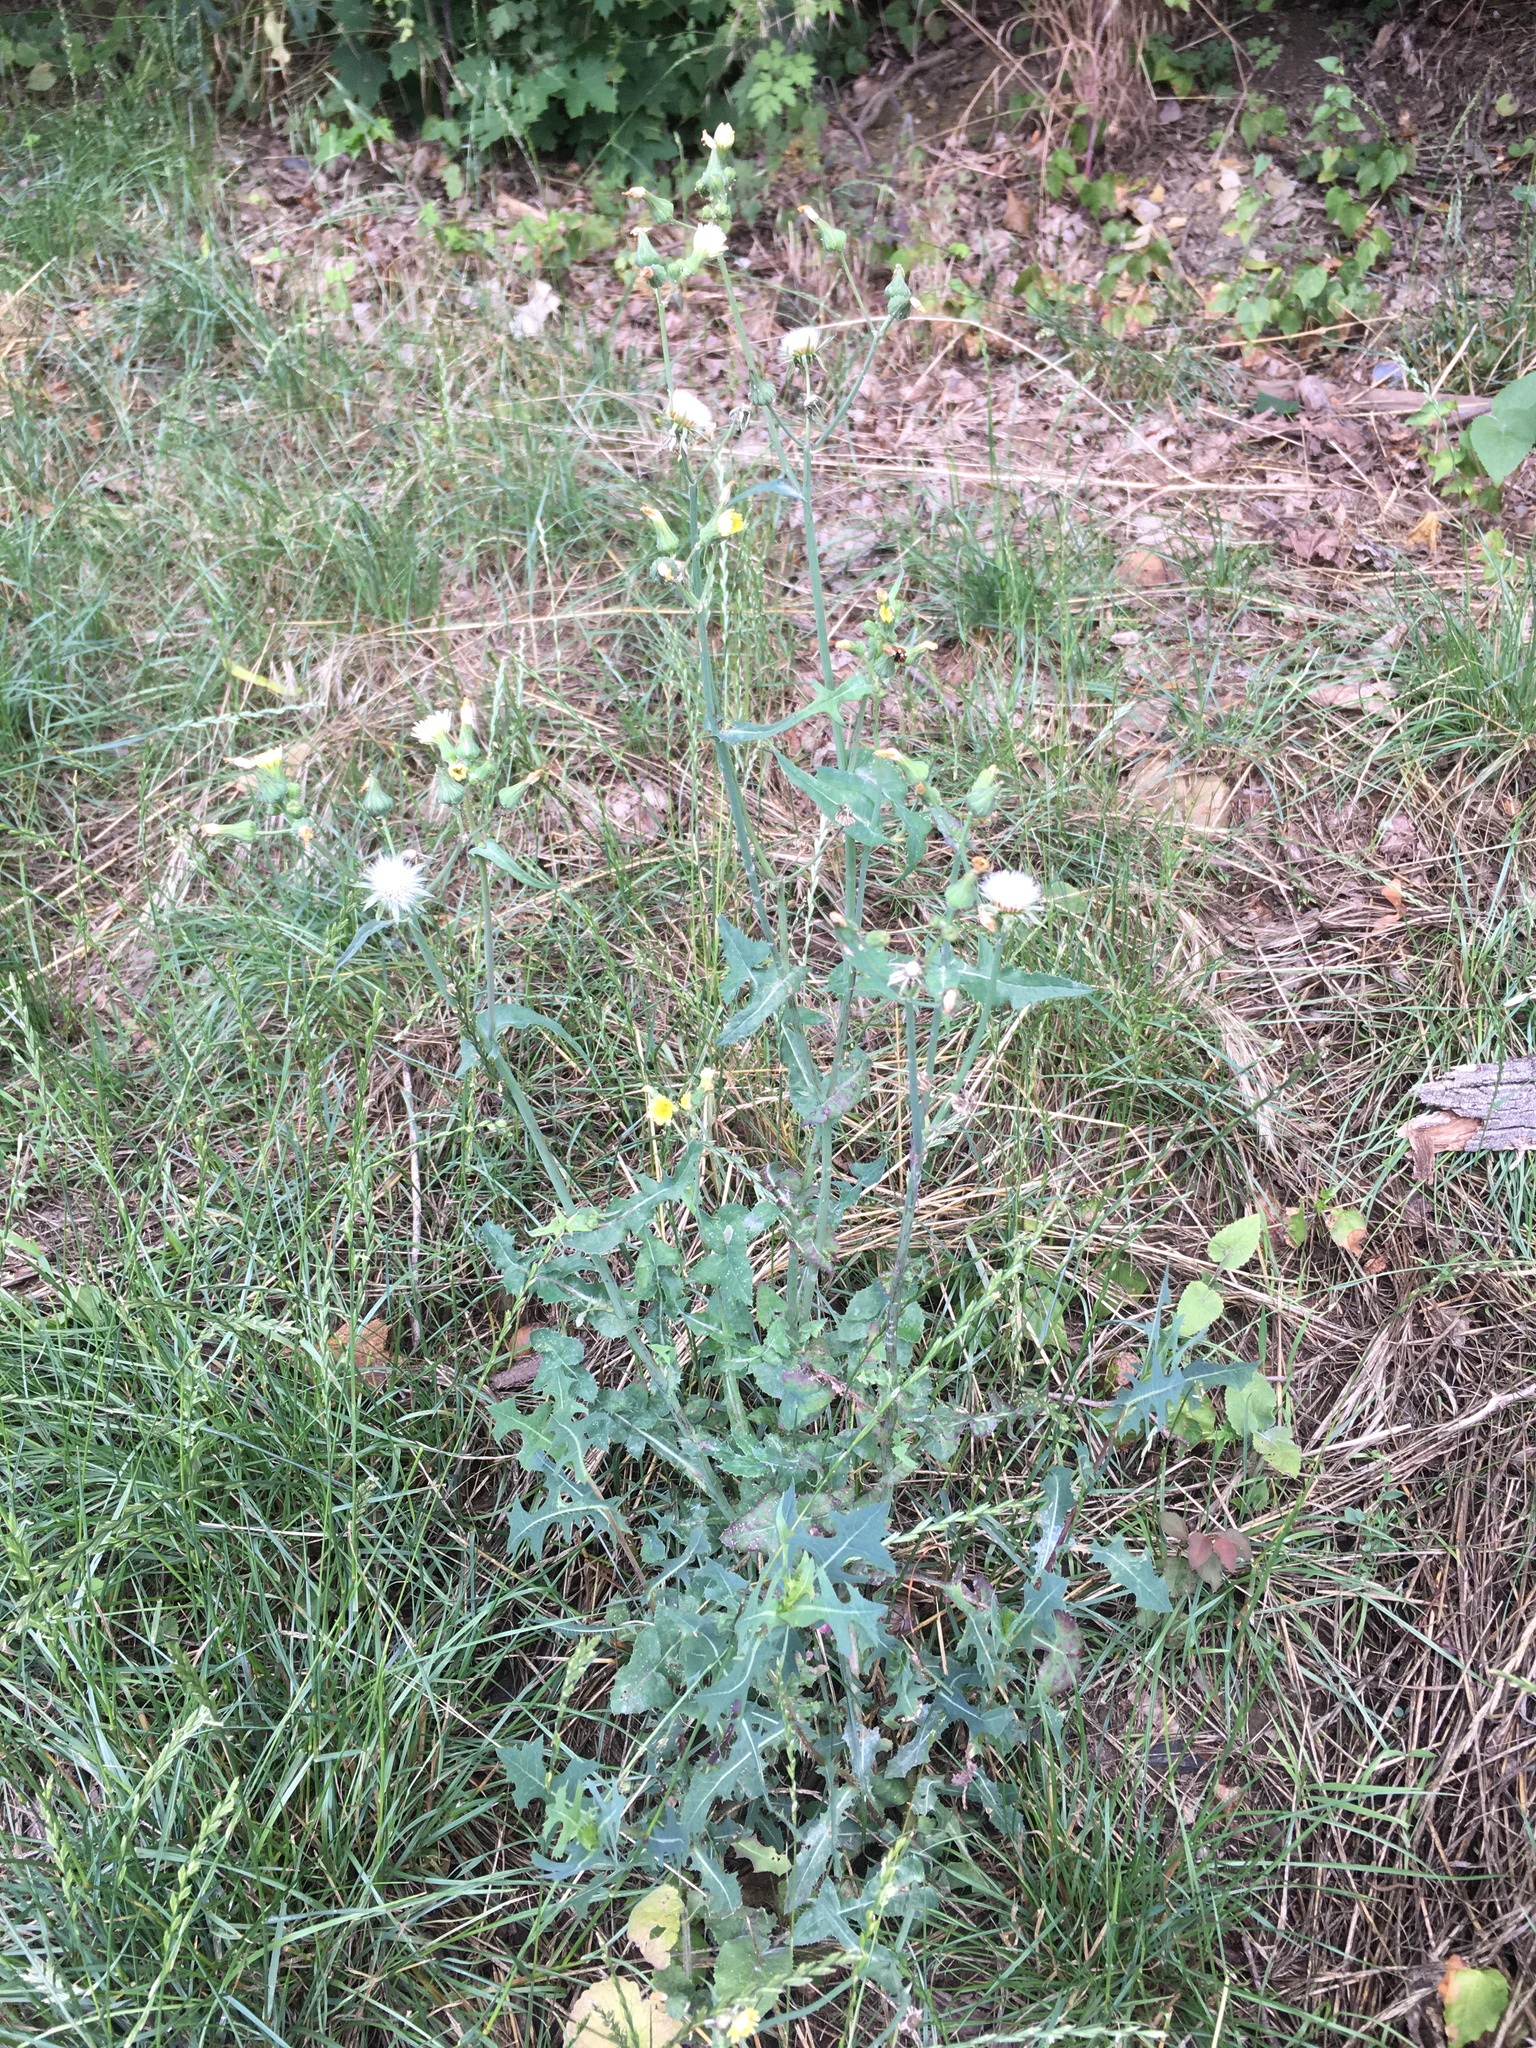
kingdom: Plantae
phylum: Tracheophyta
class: Magnoliopsida
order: Asterales
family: Asteraceae
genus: Sonchus
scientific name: Sonchus oleraceus
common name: Common sowthistle
